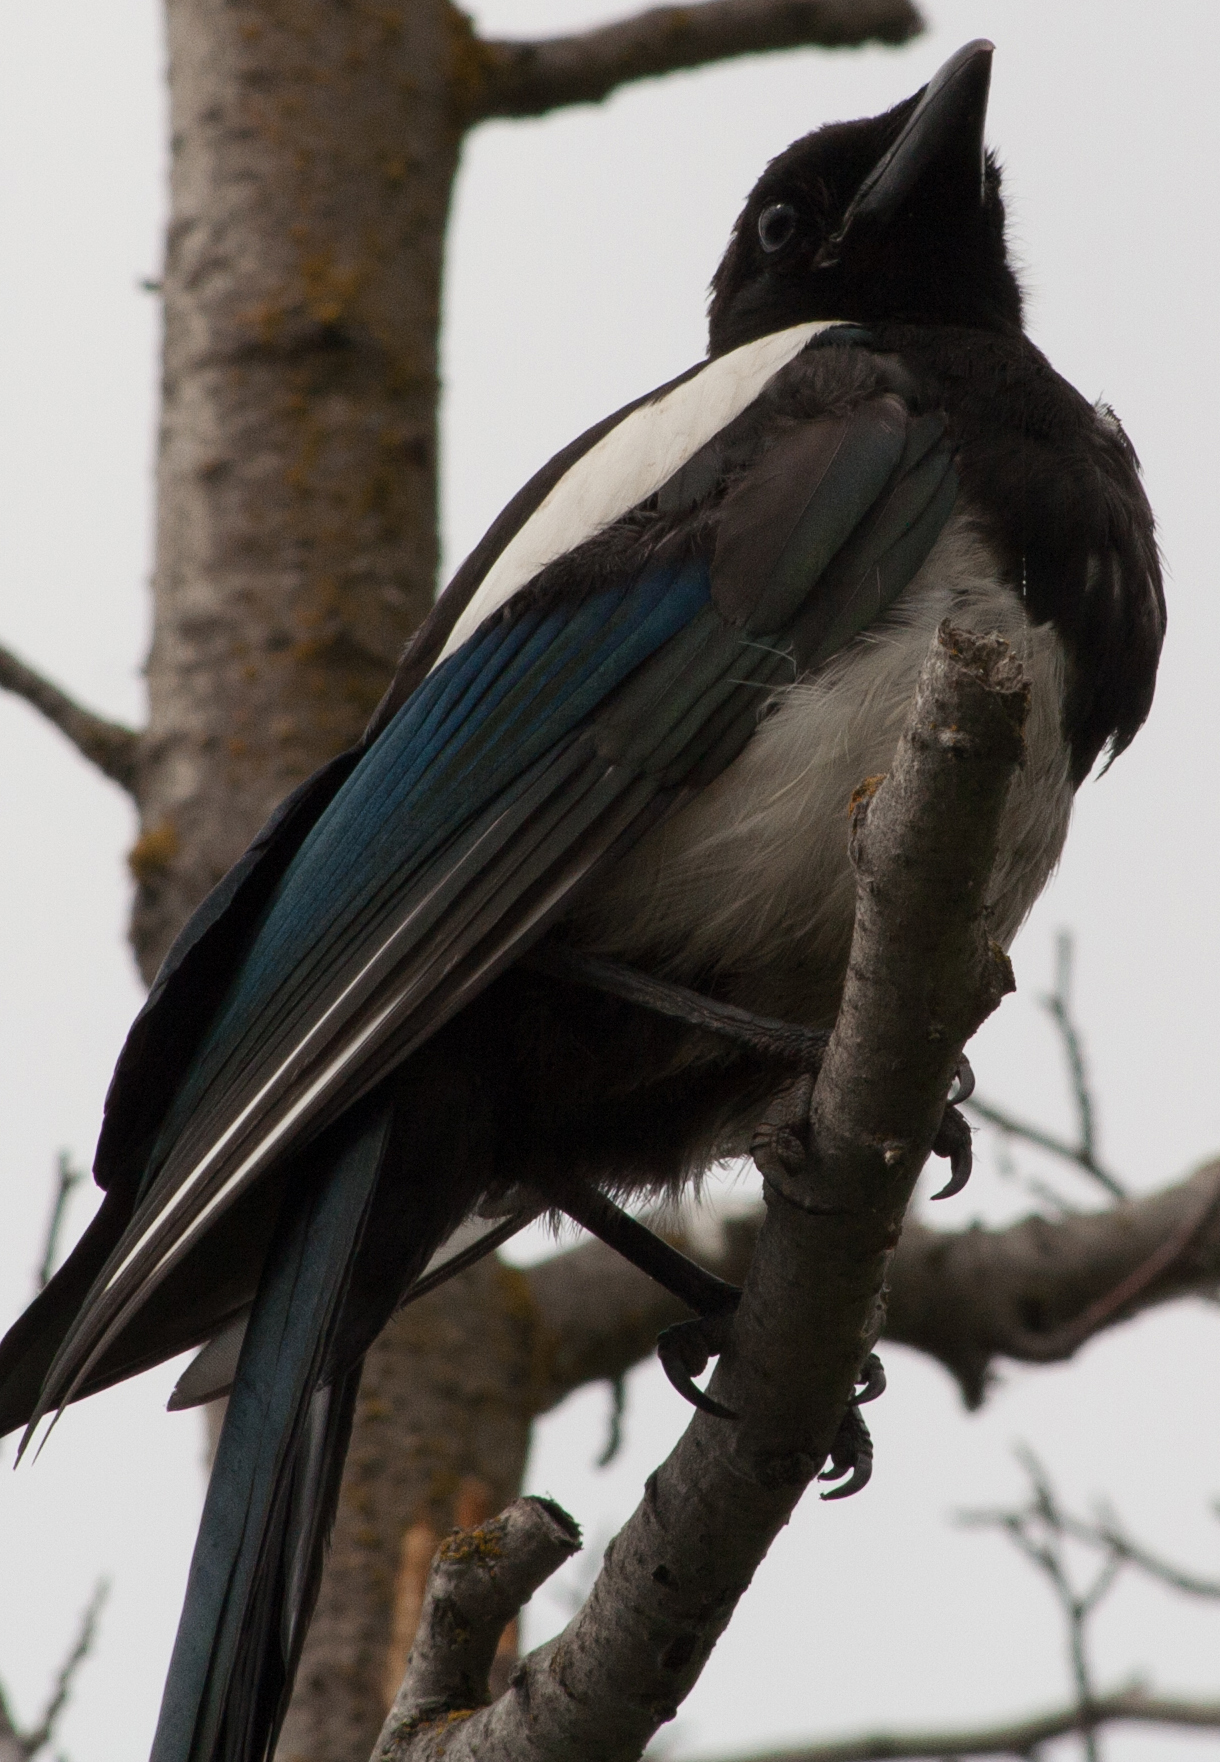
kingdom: Animalia
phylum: Chordata
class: Aves
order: Passeriformes
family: Corvidae
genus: Pica
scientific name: Pica hudsonia
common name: Black-billed magpie
